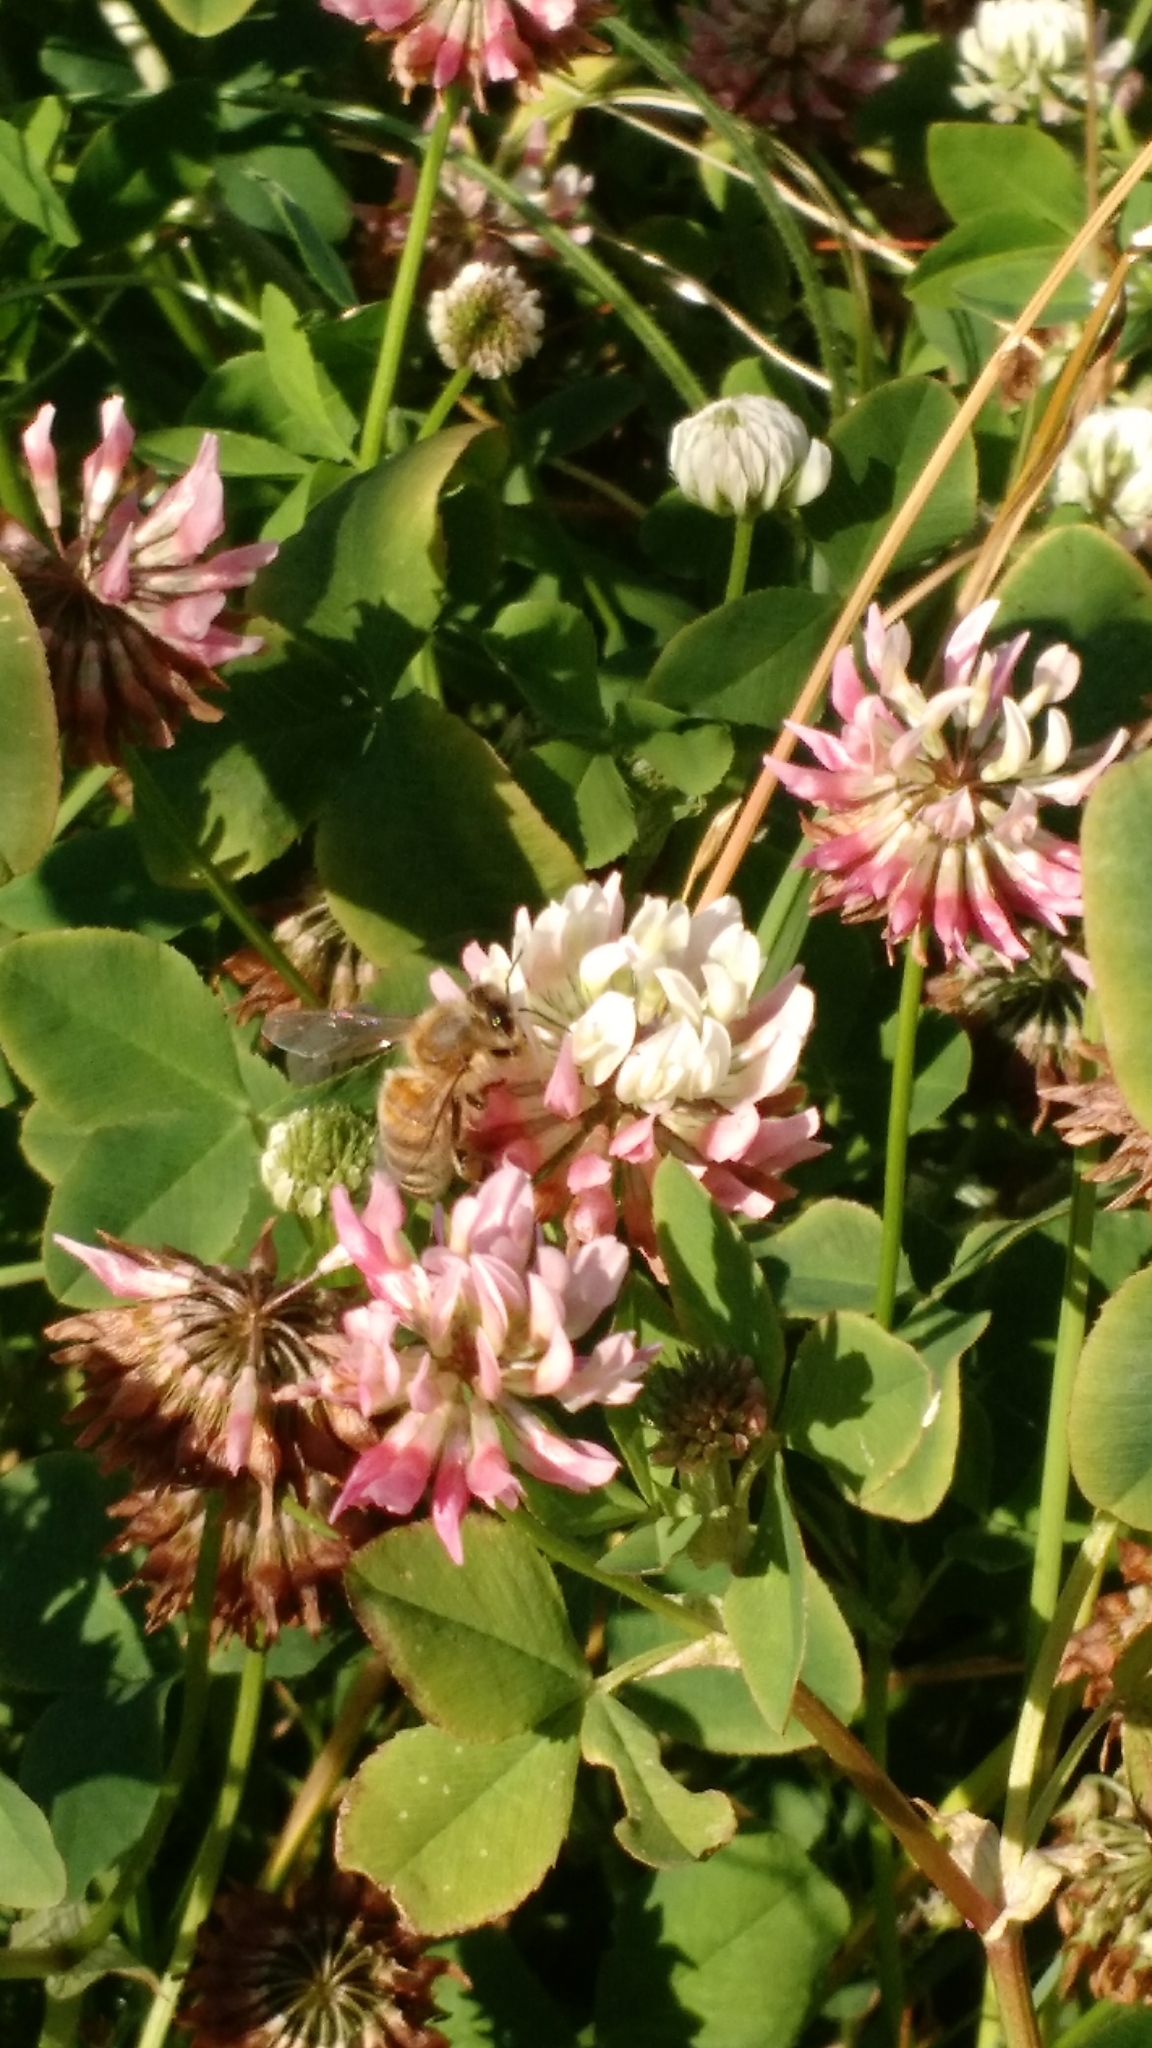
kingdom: Animalia
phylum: Arthropoda
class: Insecta
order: Hymenoptera
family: Apidae
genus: Apis
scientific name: Apis mellifera
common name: Honey bee
